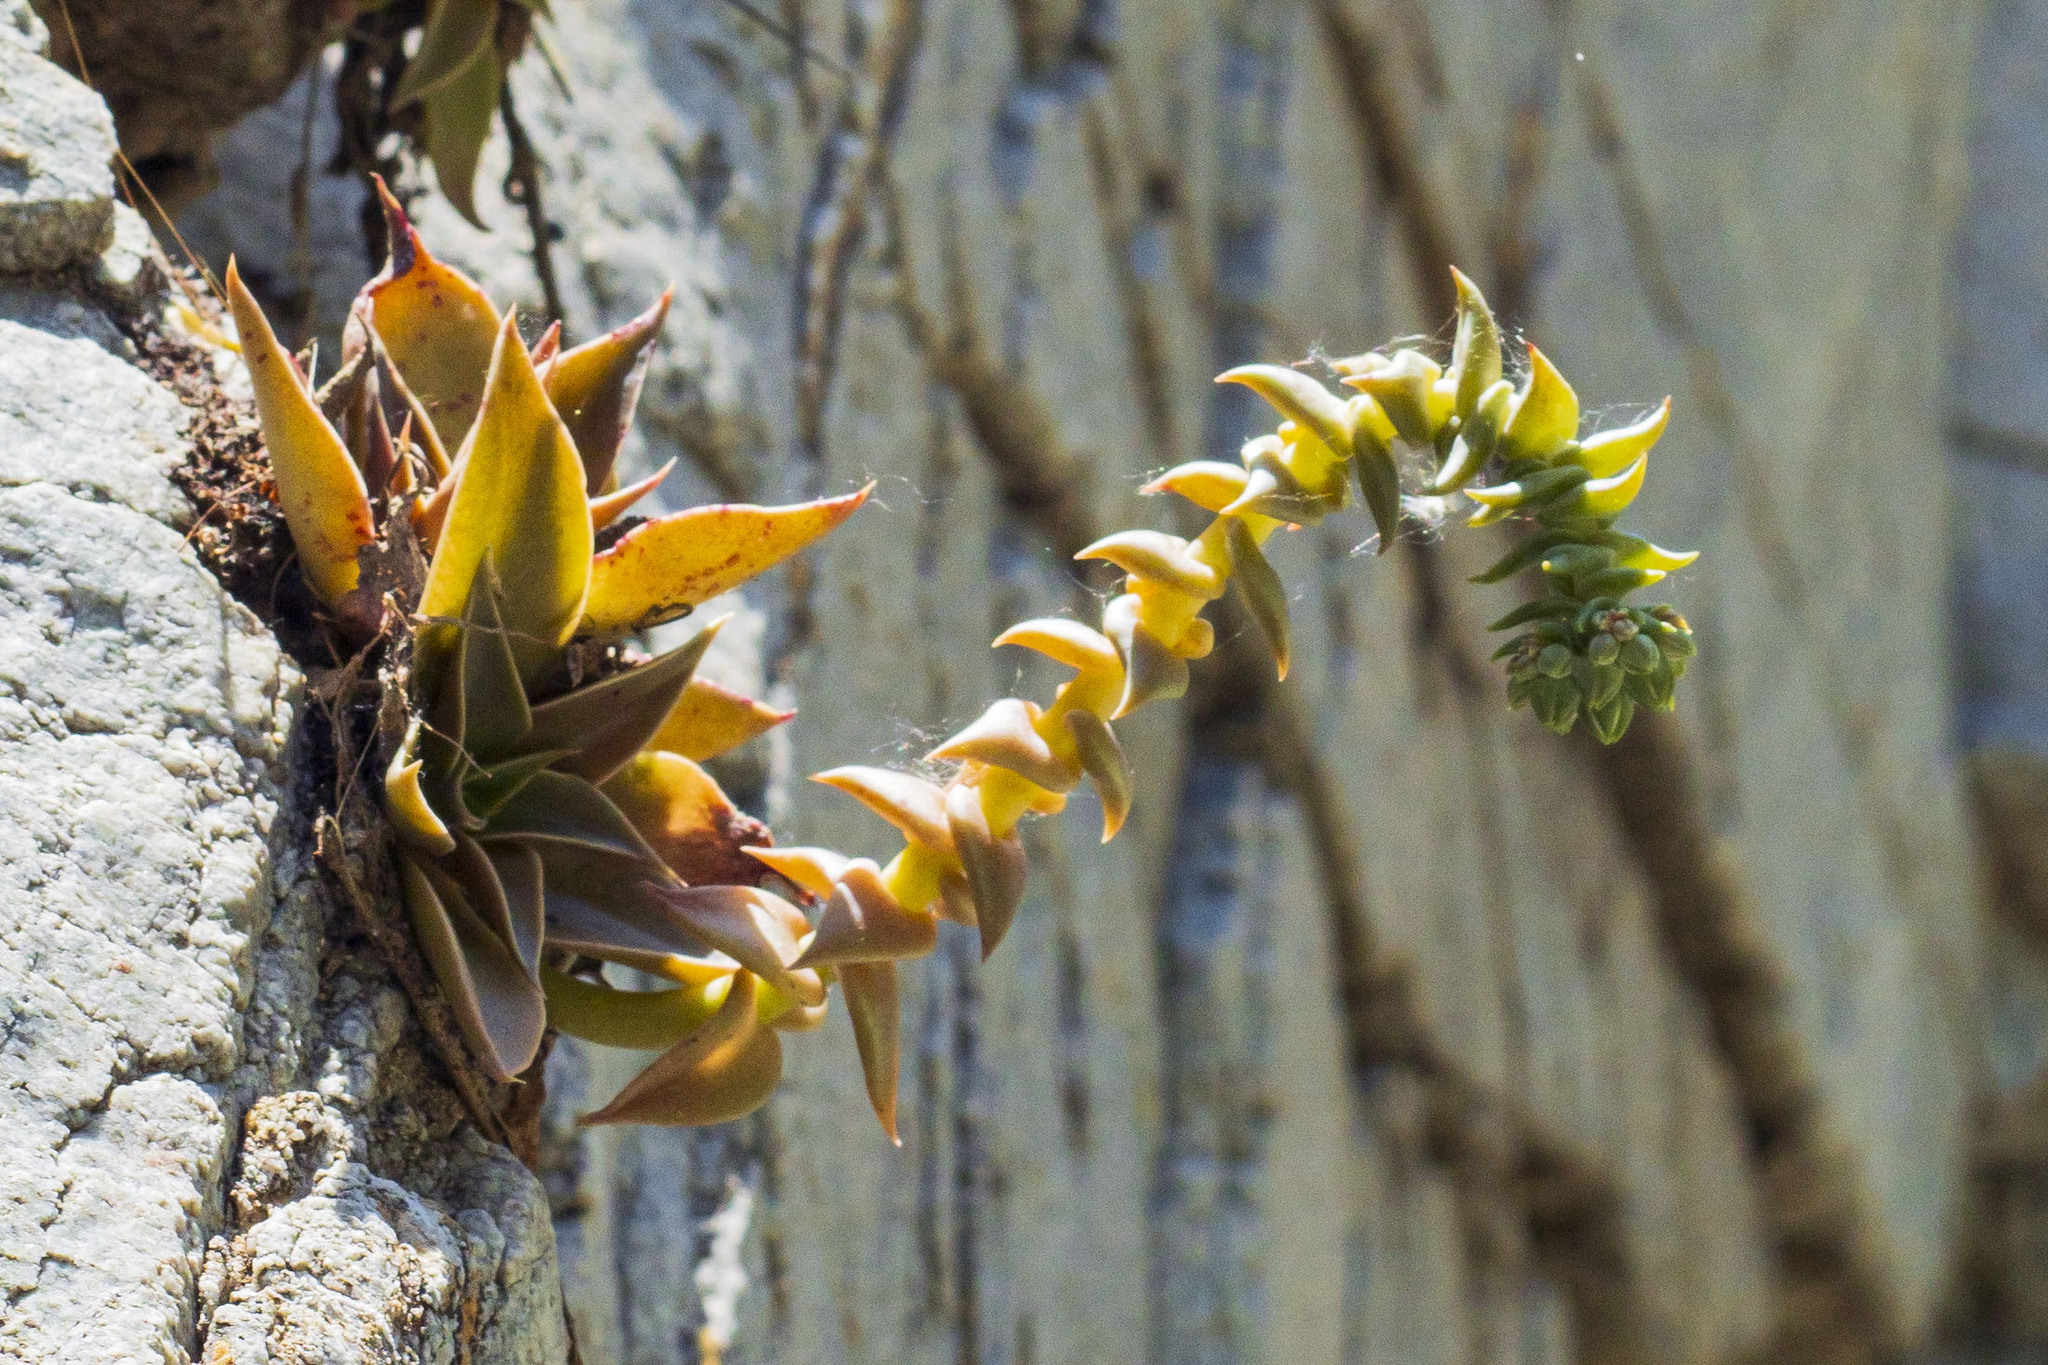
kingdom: Plantae
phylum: Tracheophyta
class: Magnoliopsida
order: Saxifragales
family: Crassulaceae
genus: Dudleya
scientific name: Dudleya cymosa
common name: Canyon dudleya
